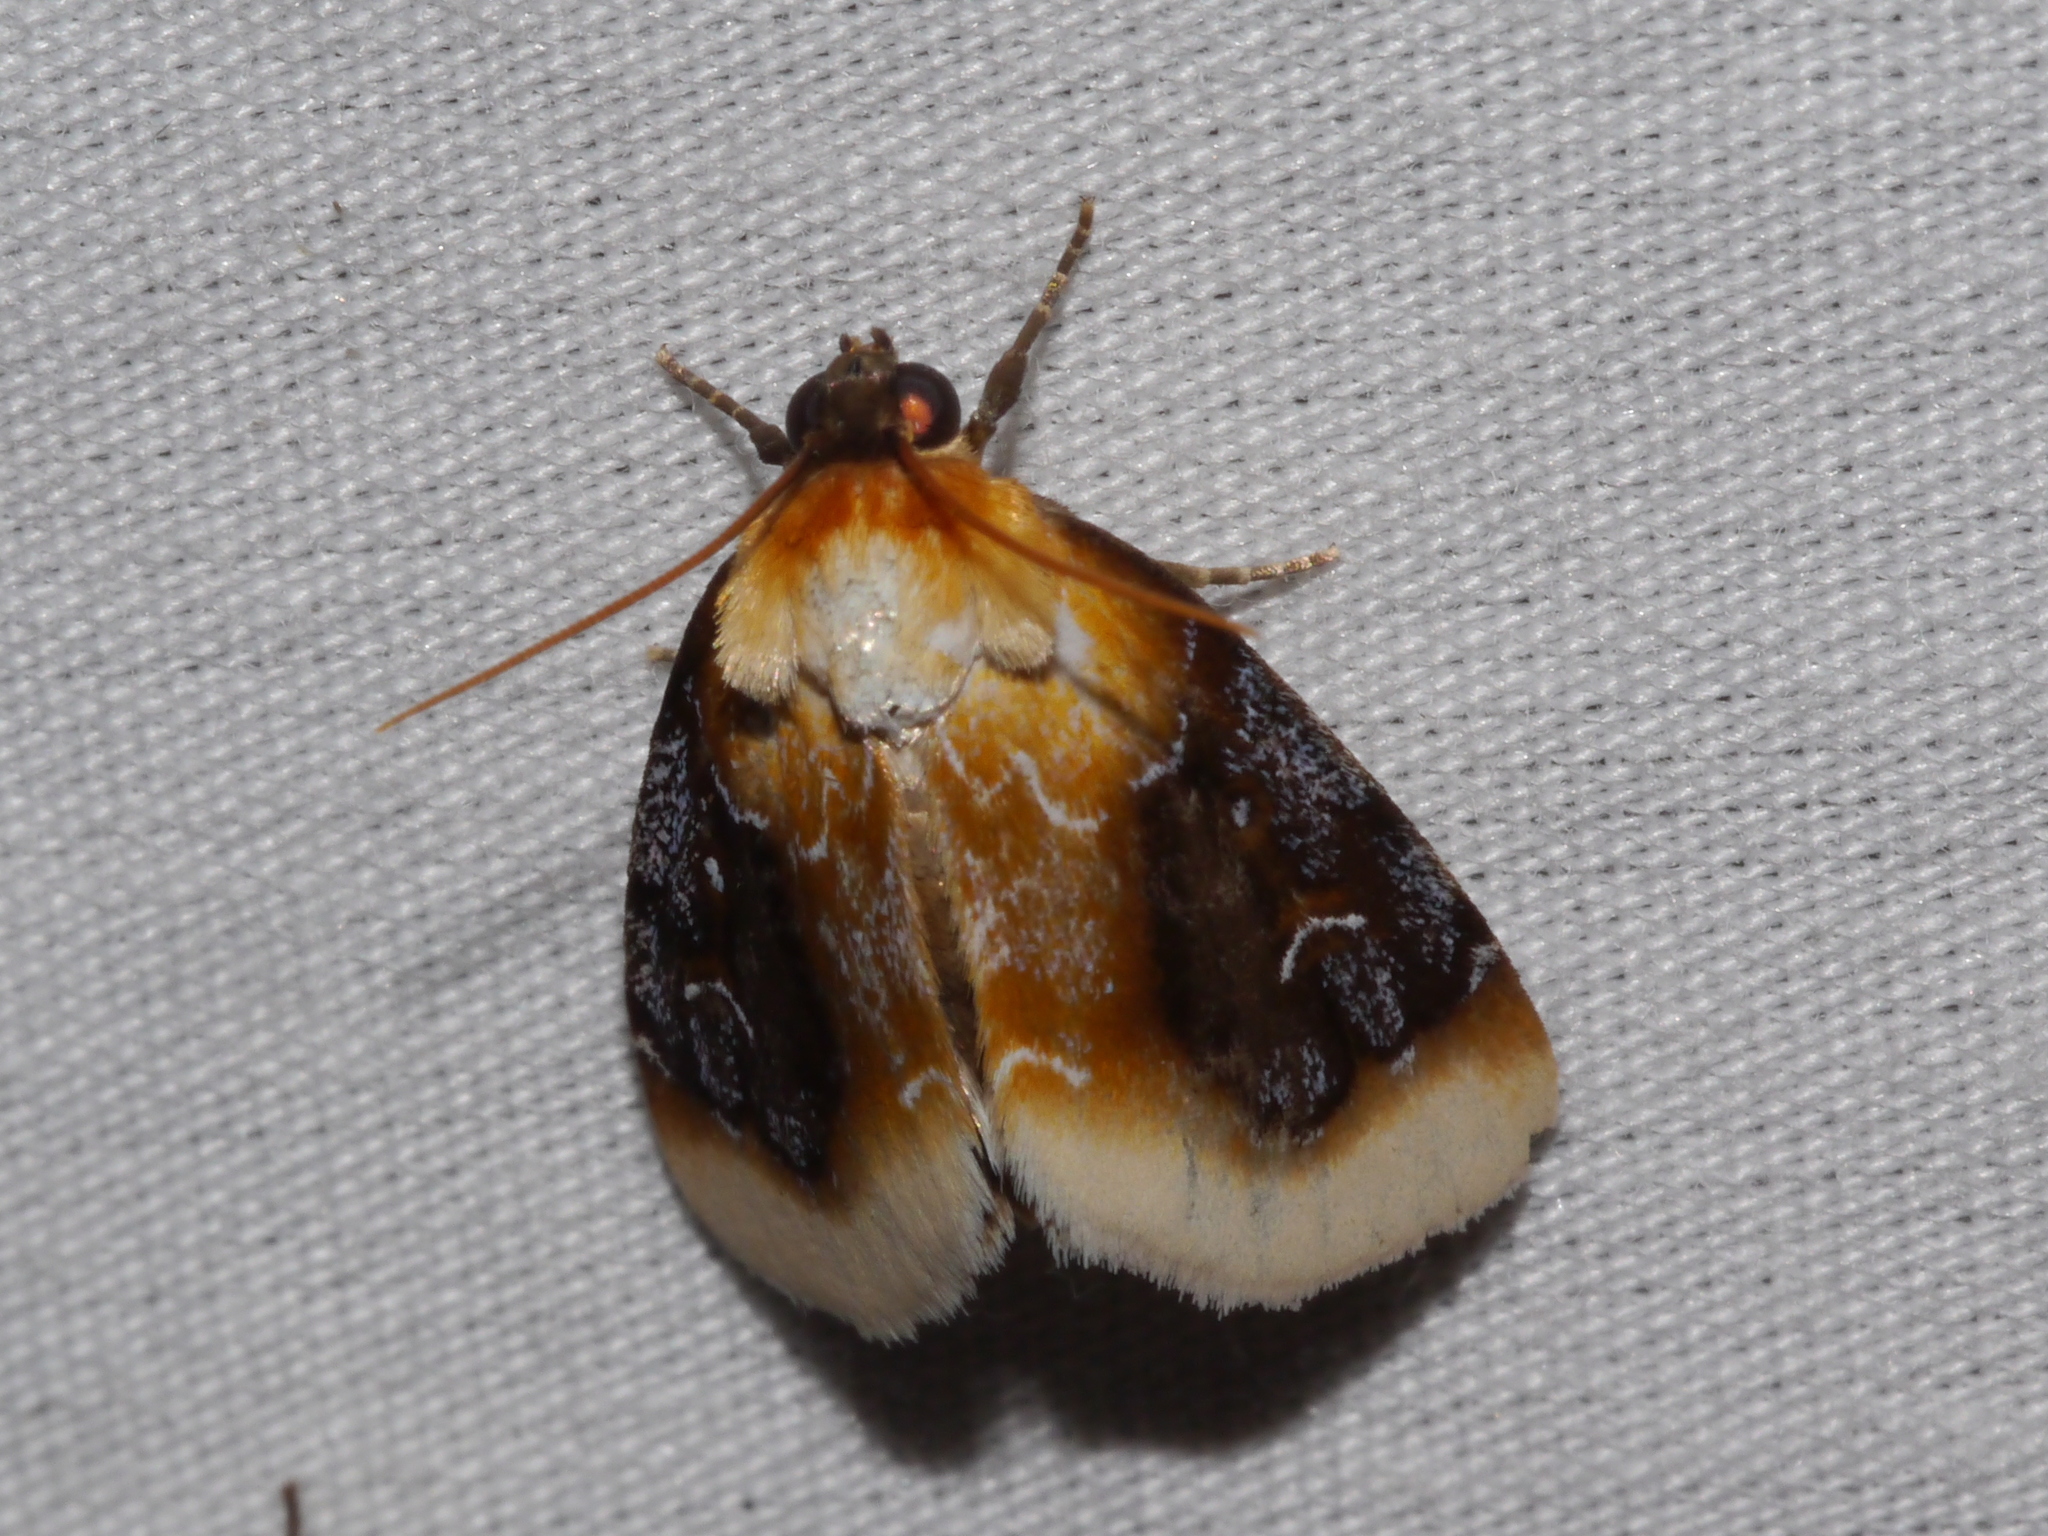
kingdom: Animalia
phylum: Arthropoda
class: Insecta
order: Lepidoptera
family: Noctuidae
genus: Chrysoecia
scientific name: Chrysoecia scira
